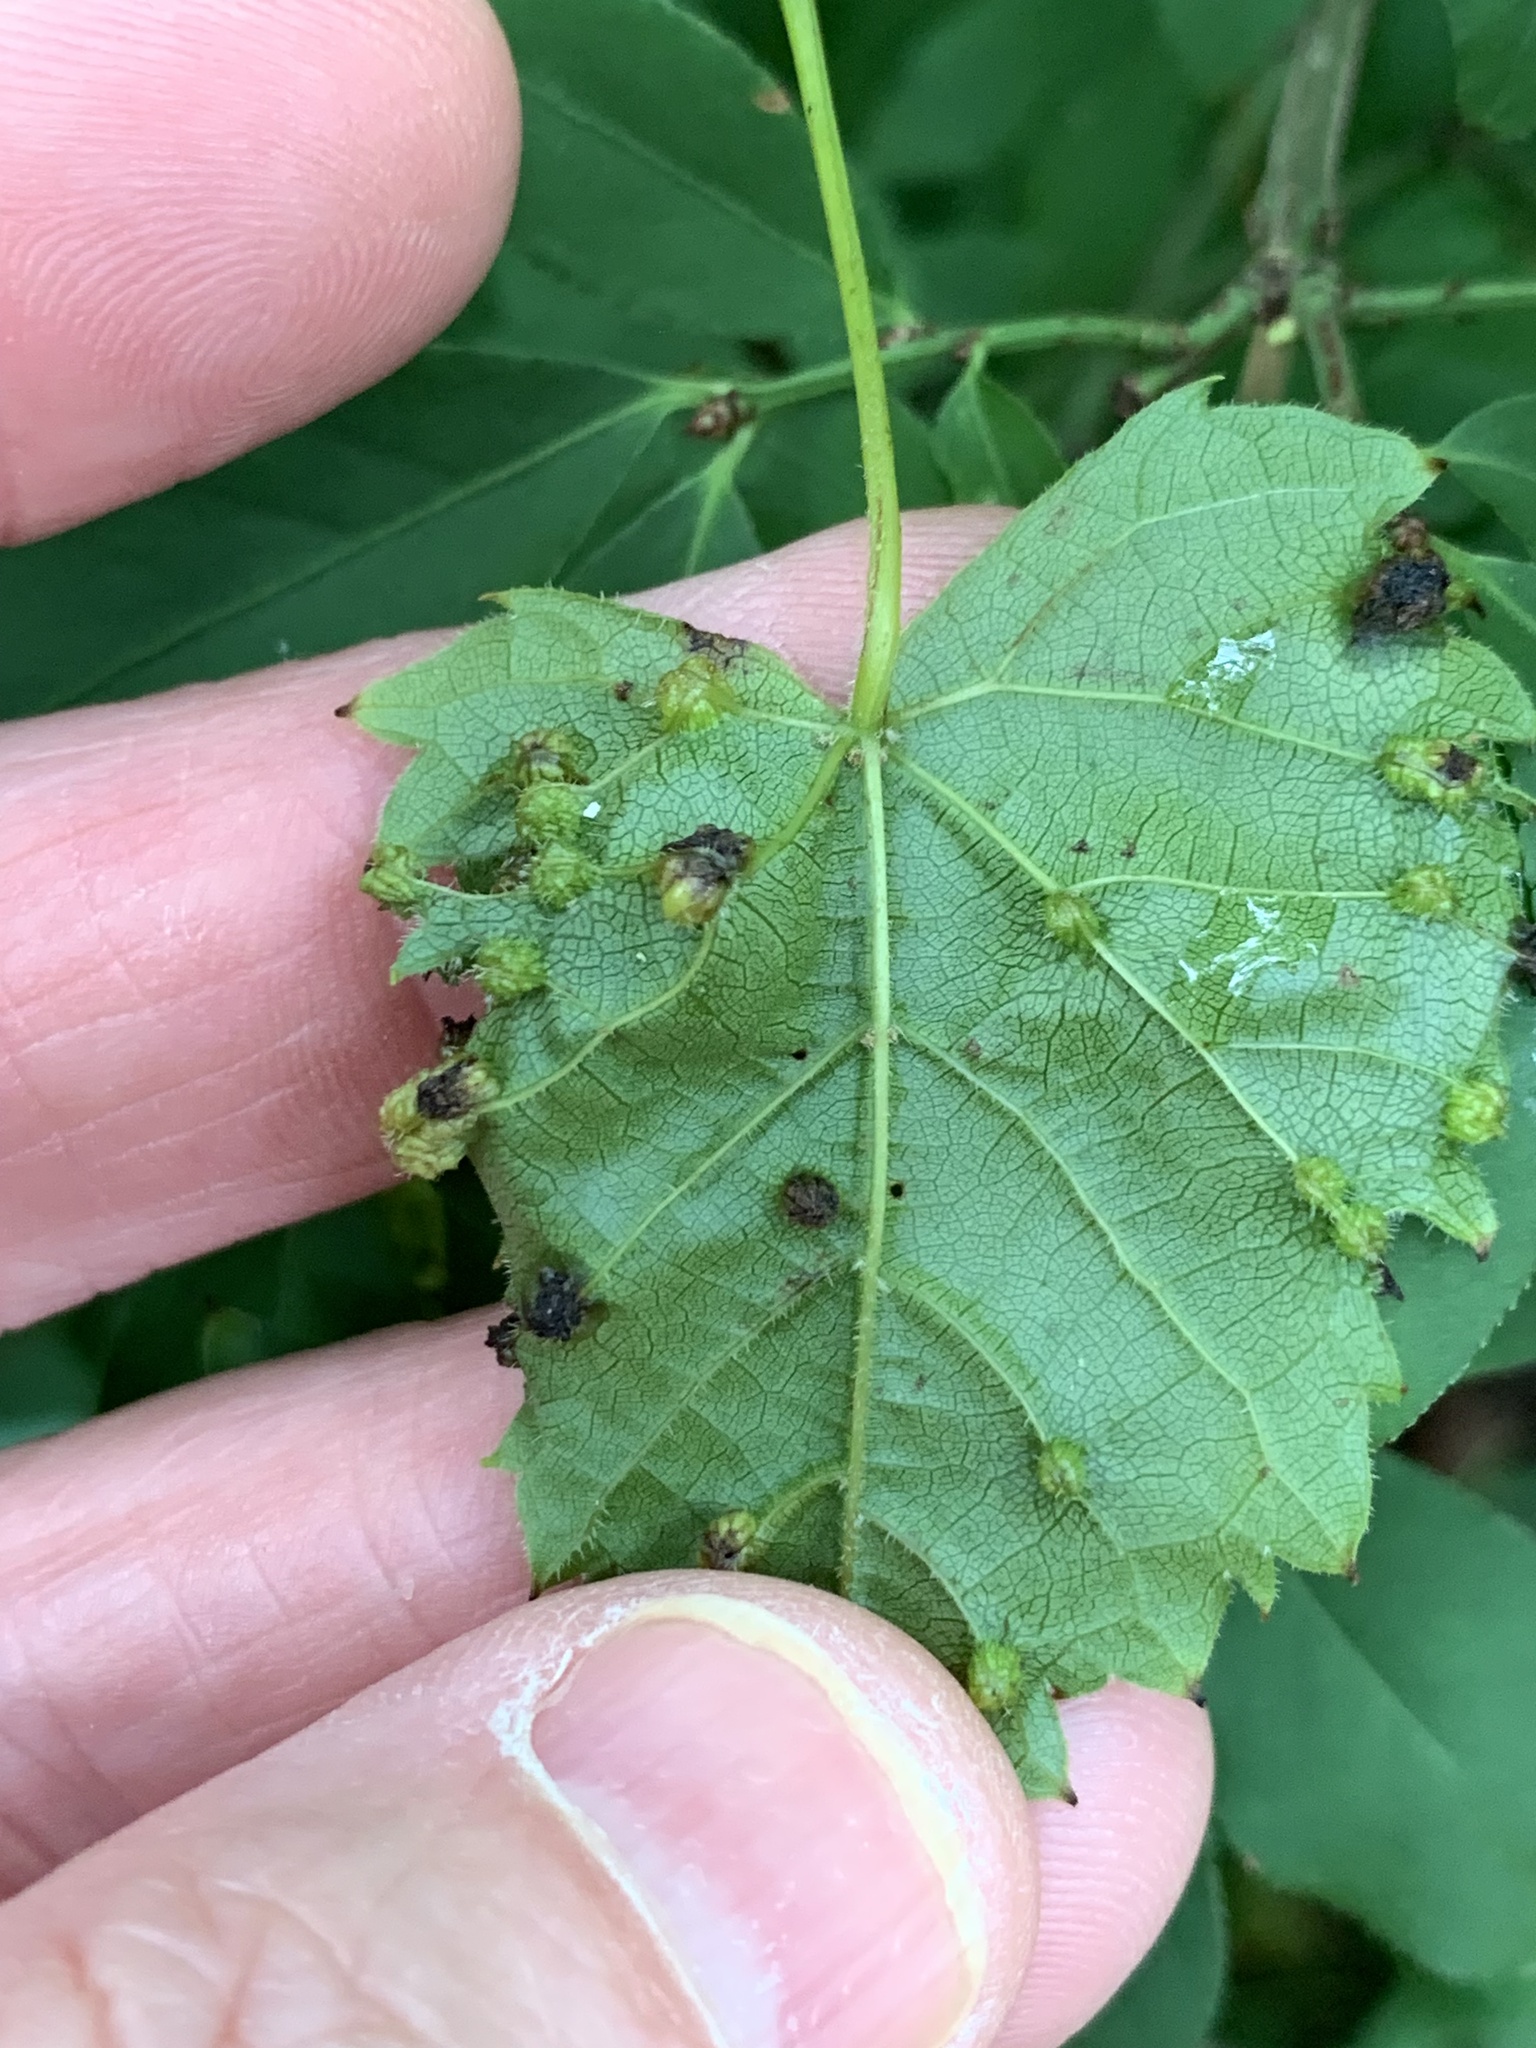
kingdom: Animalia
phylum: Arthropoda
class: Insecta
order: Hemiptera
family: Phylloxeridae
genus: Daktulosphaira
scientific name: Daktulosphaira vitifoliae
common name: Grape phylloxera
